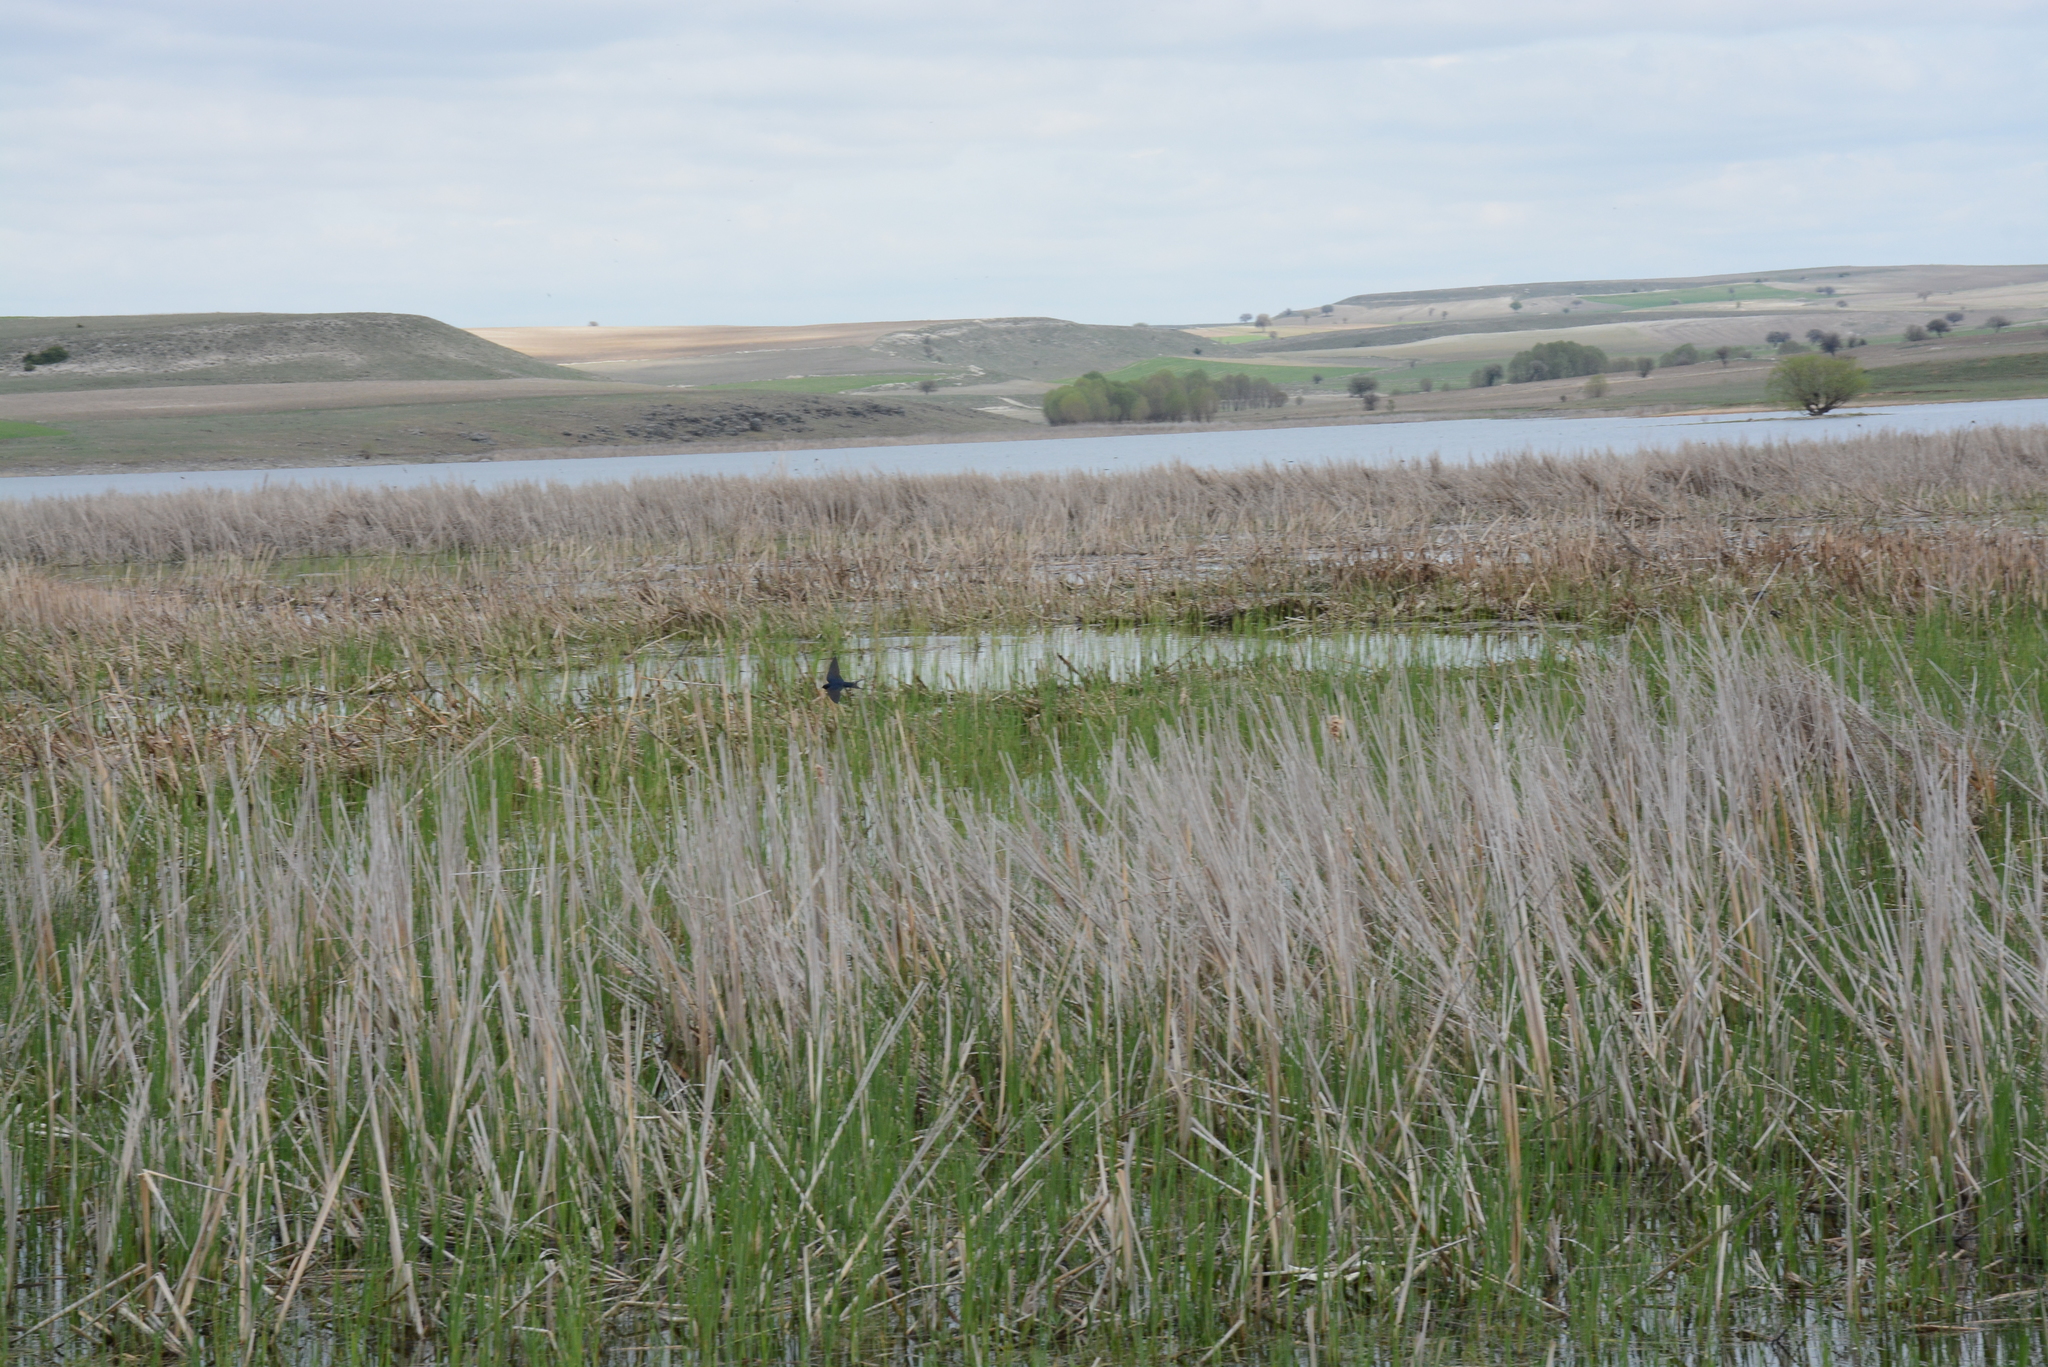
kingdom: Animalia
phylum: Chordata
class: Aves
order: Passeriformes
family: Hirundinidae
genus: Hirundo
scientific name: Hirundo rustica
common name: Barn swallow
